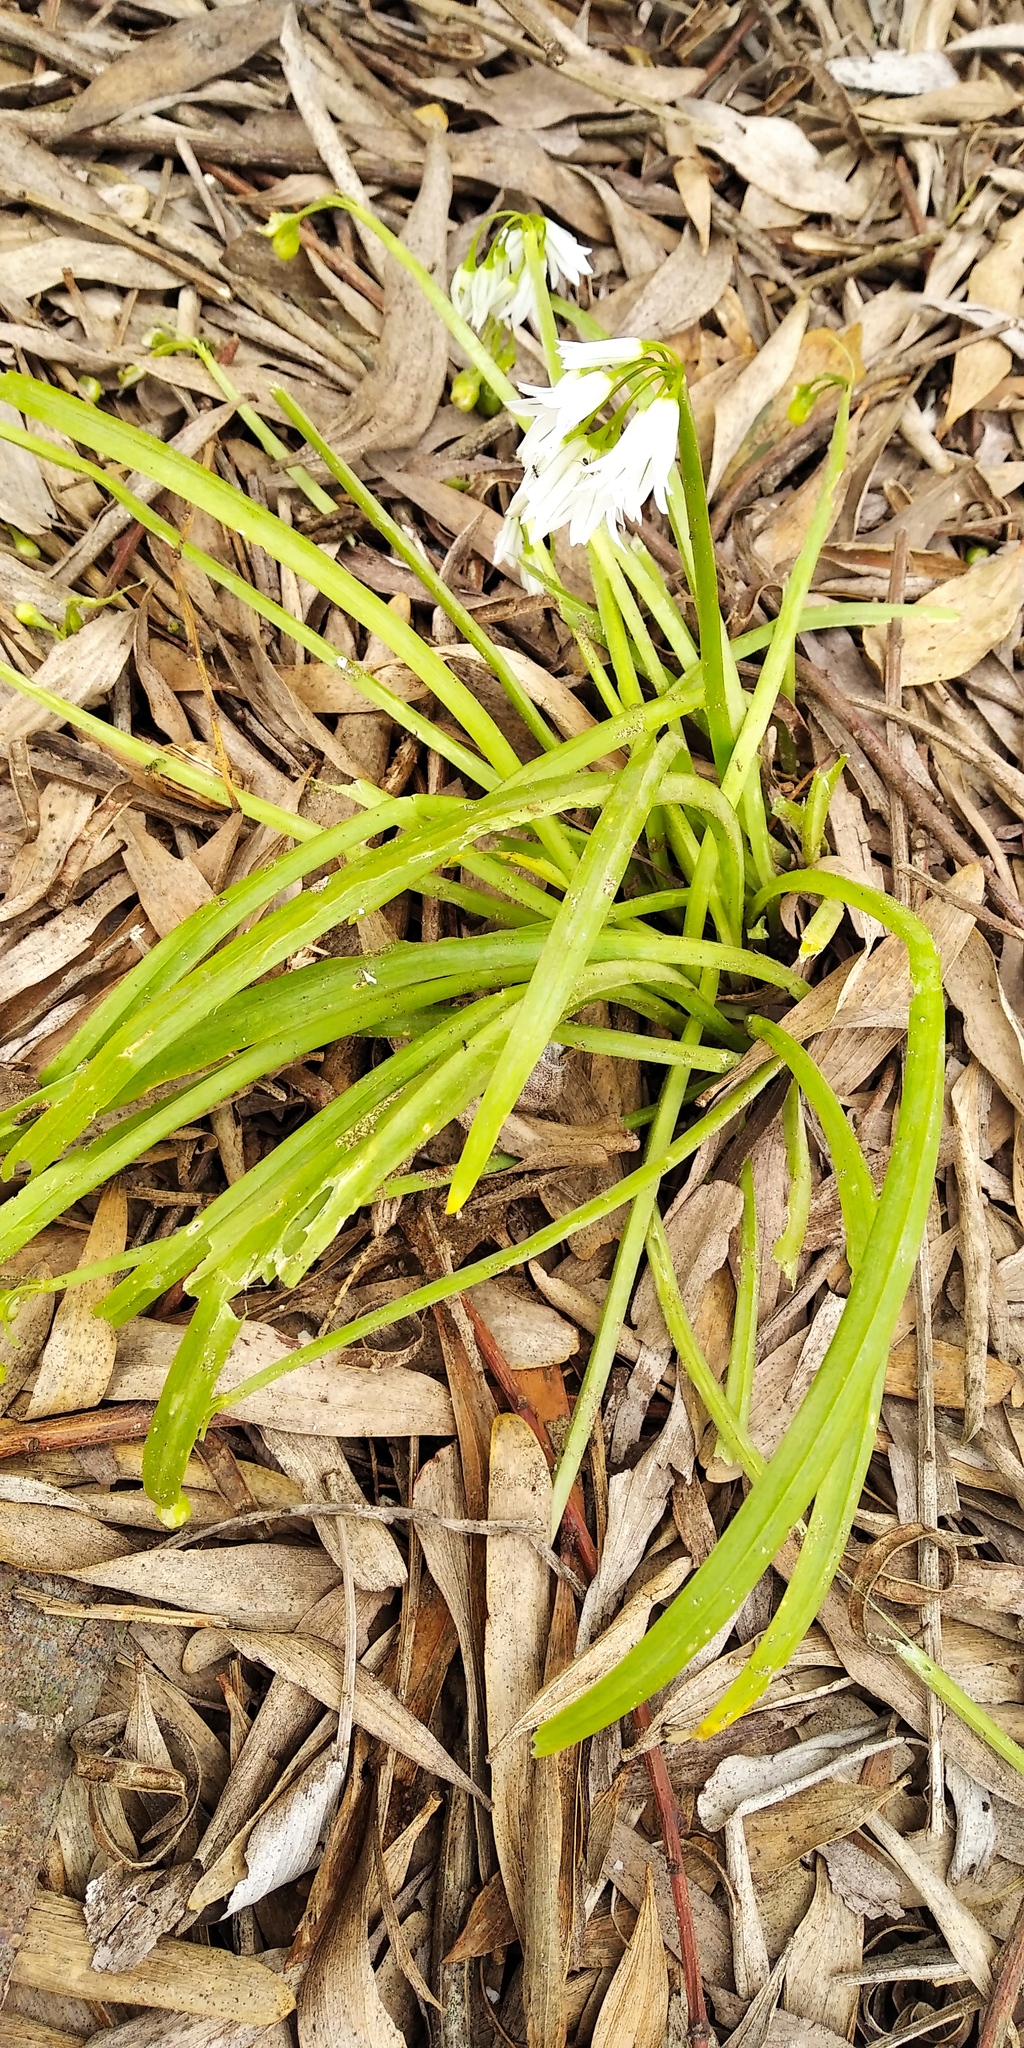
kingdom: Plantae
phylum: Tracheophyta
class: Liliopsida
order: Asparagales
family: Amaryllidaceae
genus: Allium
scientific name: Allium triquetrum
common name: Three-cornered garlic
